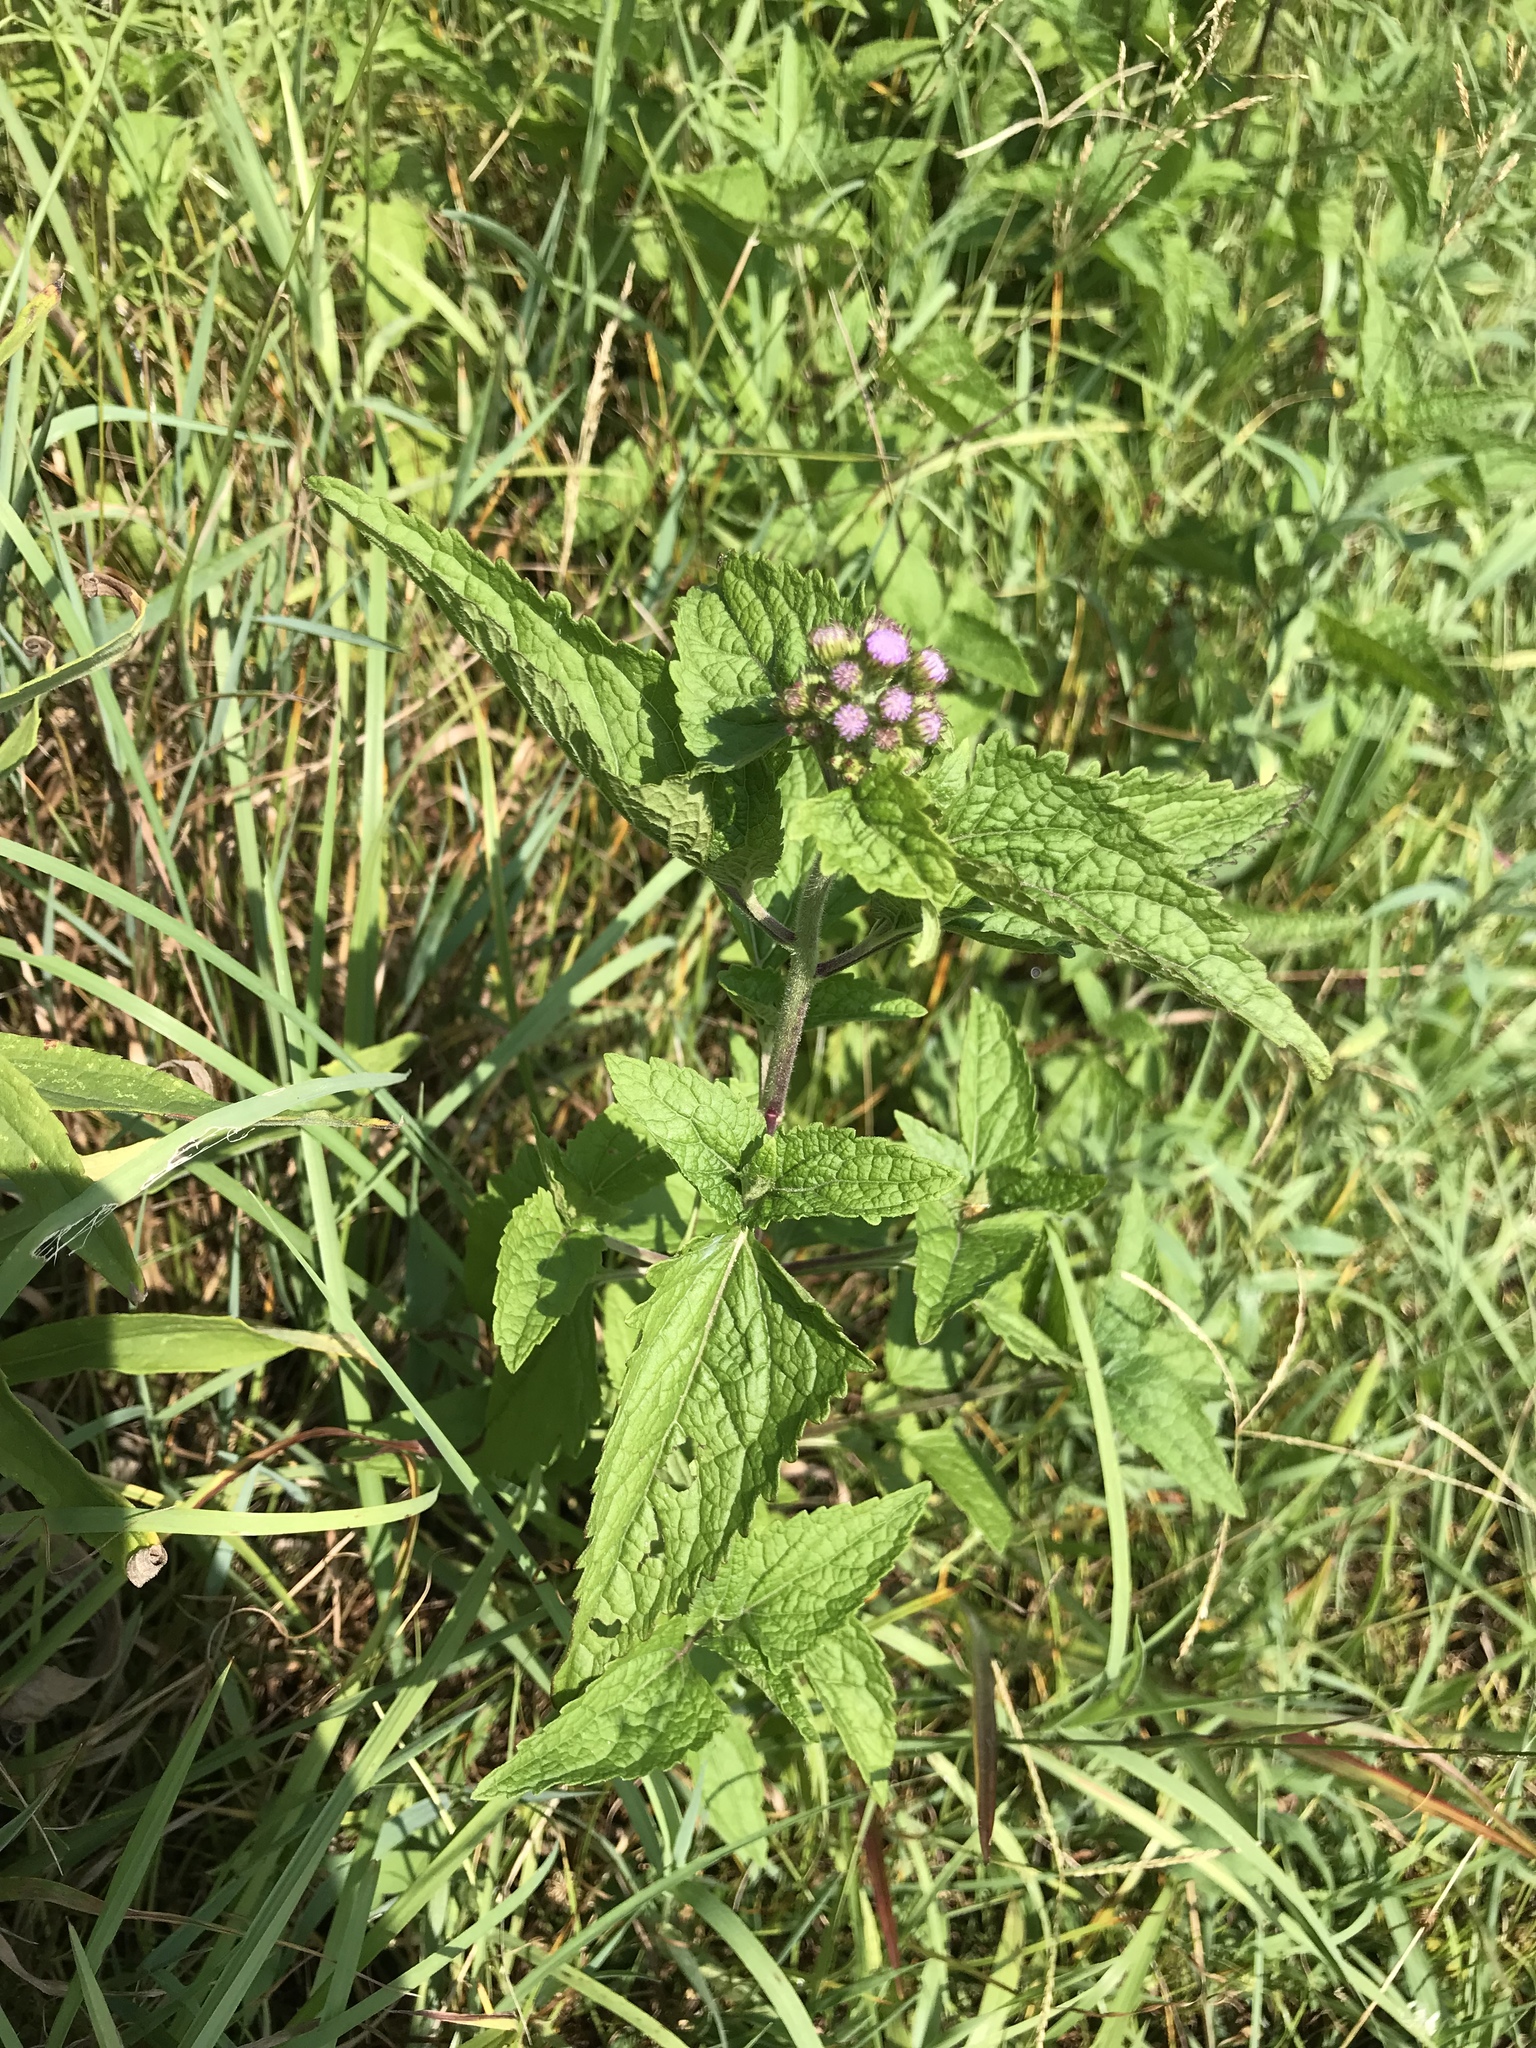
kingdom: Plantae
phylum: Tracheophyta
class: Magnoliopsida
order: Asterales
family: Asteraceae
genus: Conoclinium
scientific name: Conoclinium coelestinum
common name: Blue mistflower
